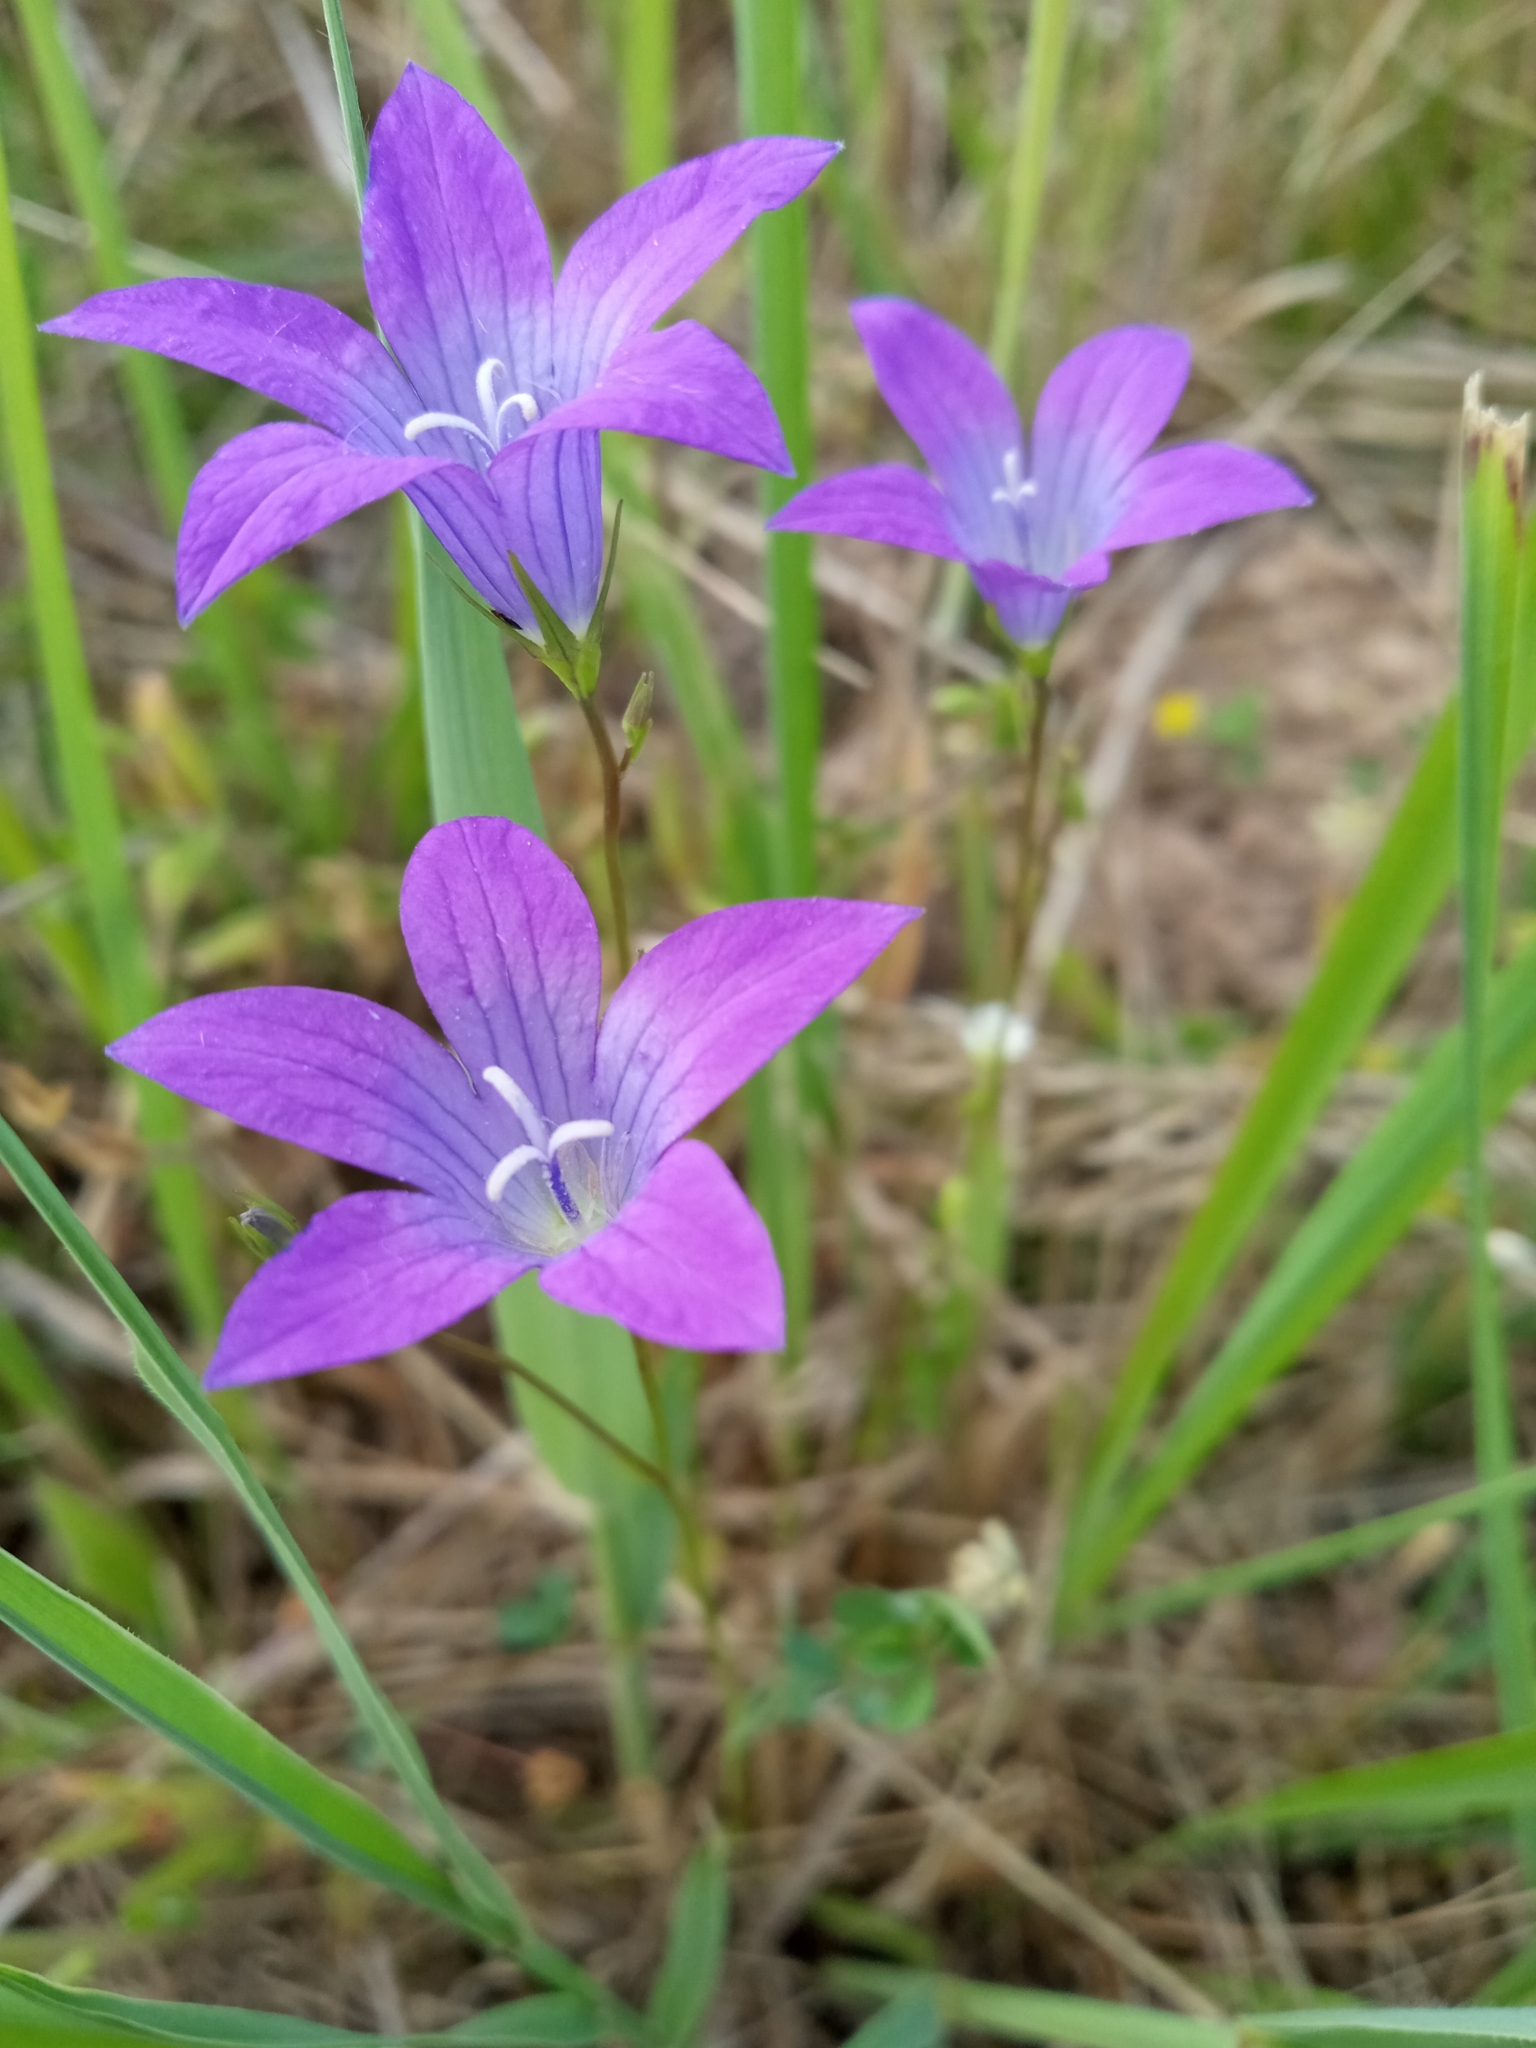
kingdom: Plantae
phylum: Tracheophyta
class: Magnoliopsida
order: Asterales
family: Campanulaceae
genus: Campanula
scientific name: Campanula patula
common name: Spreading bellflower
